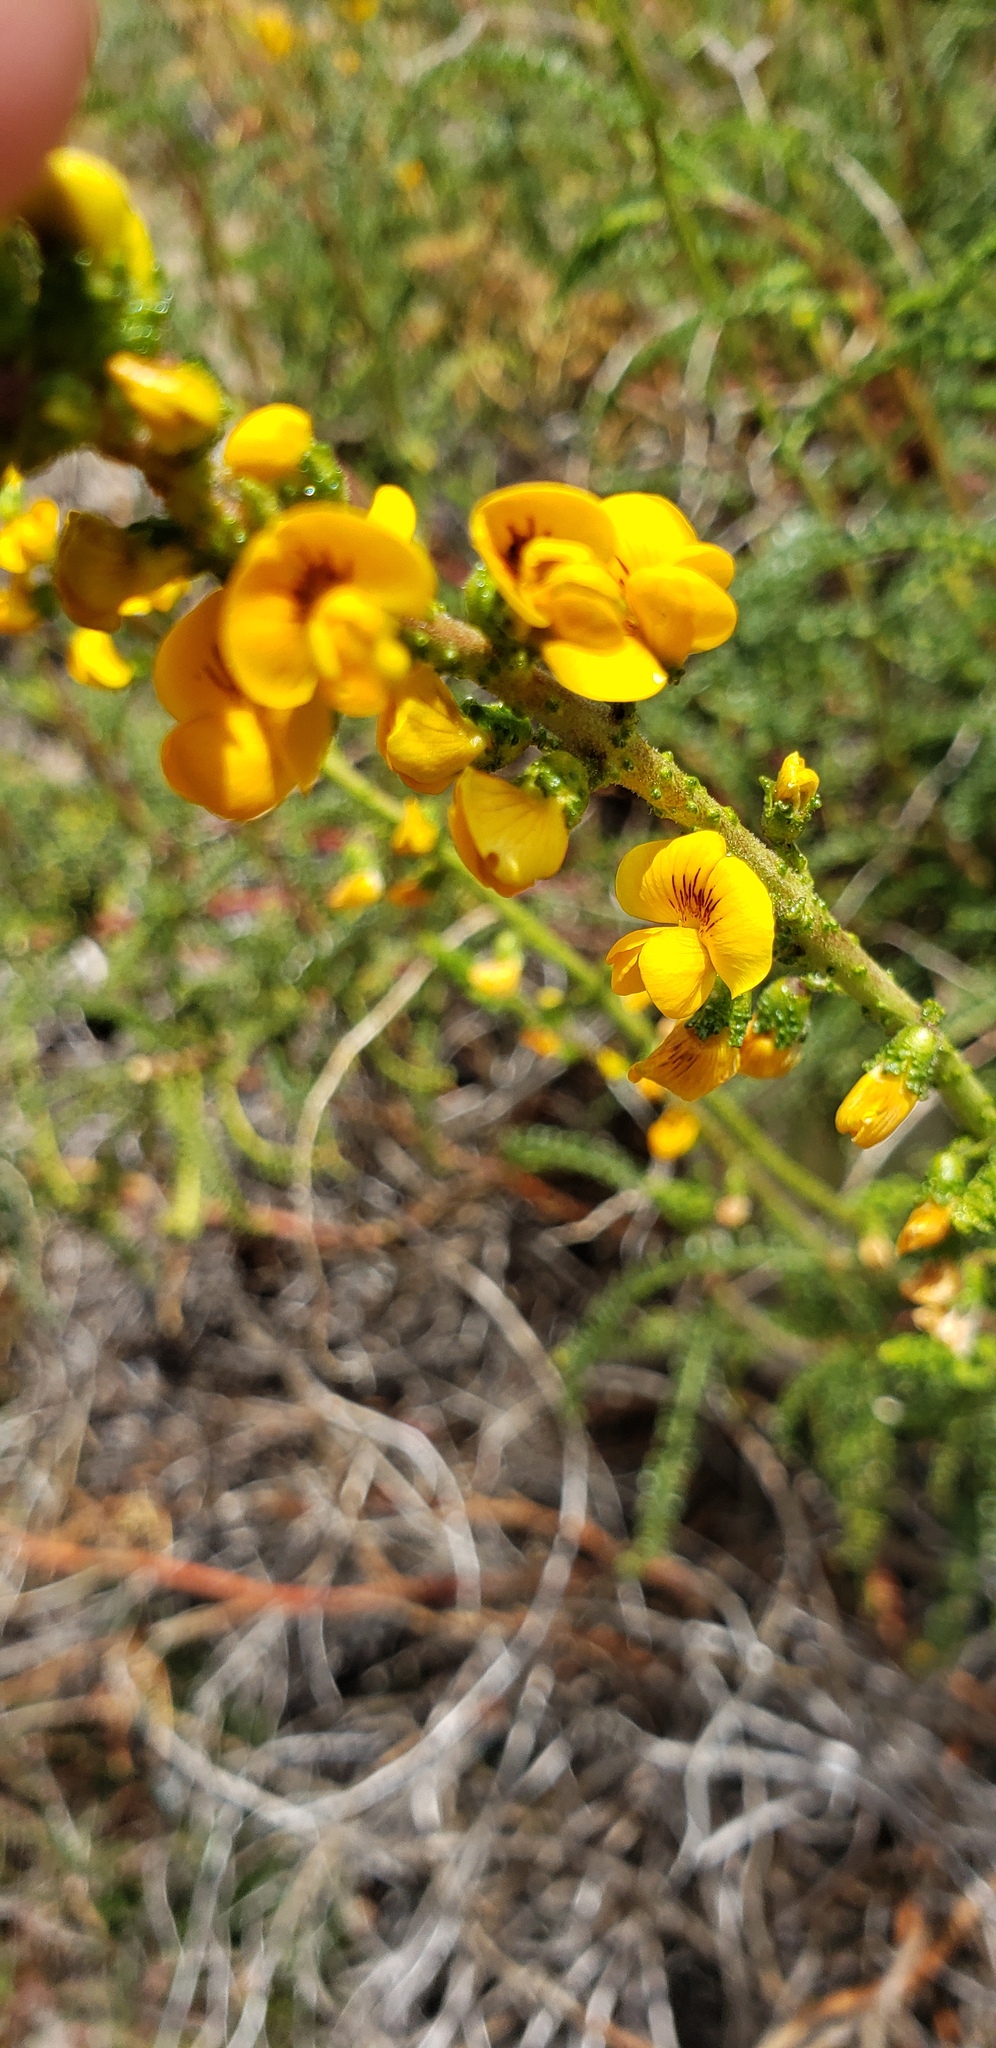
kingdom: Plantae
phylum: Tracheophyta
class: Magnoliopsida
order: Fabales
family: Fabaceae
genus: Adesmia
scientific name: Adesmia boronioides
